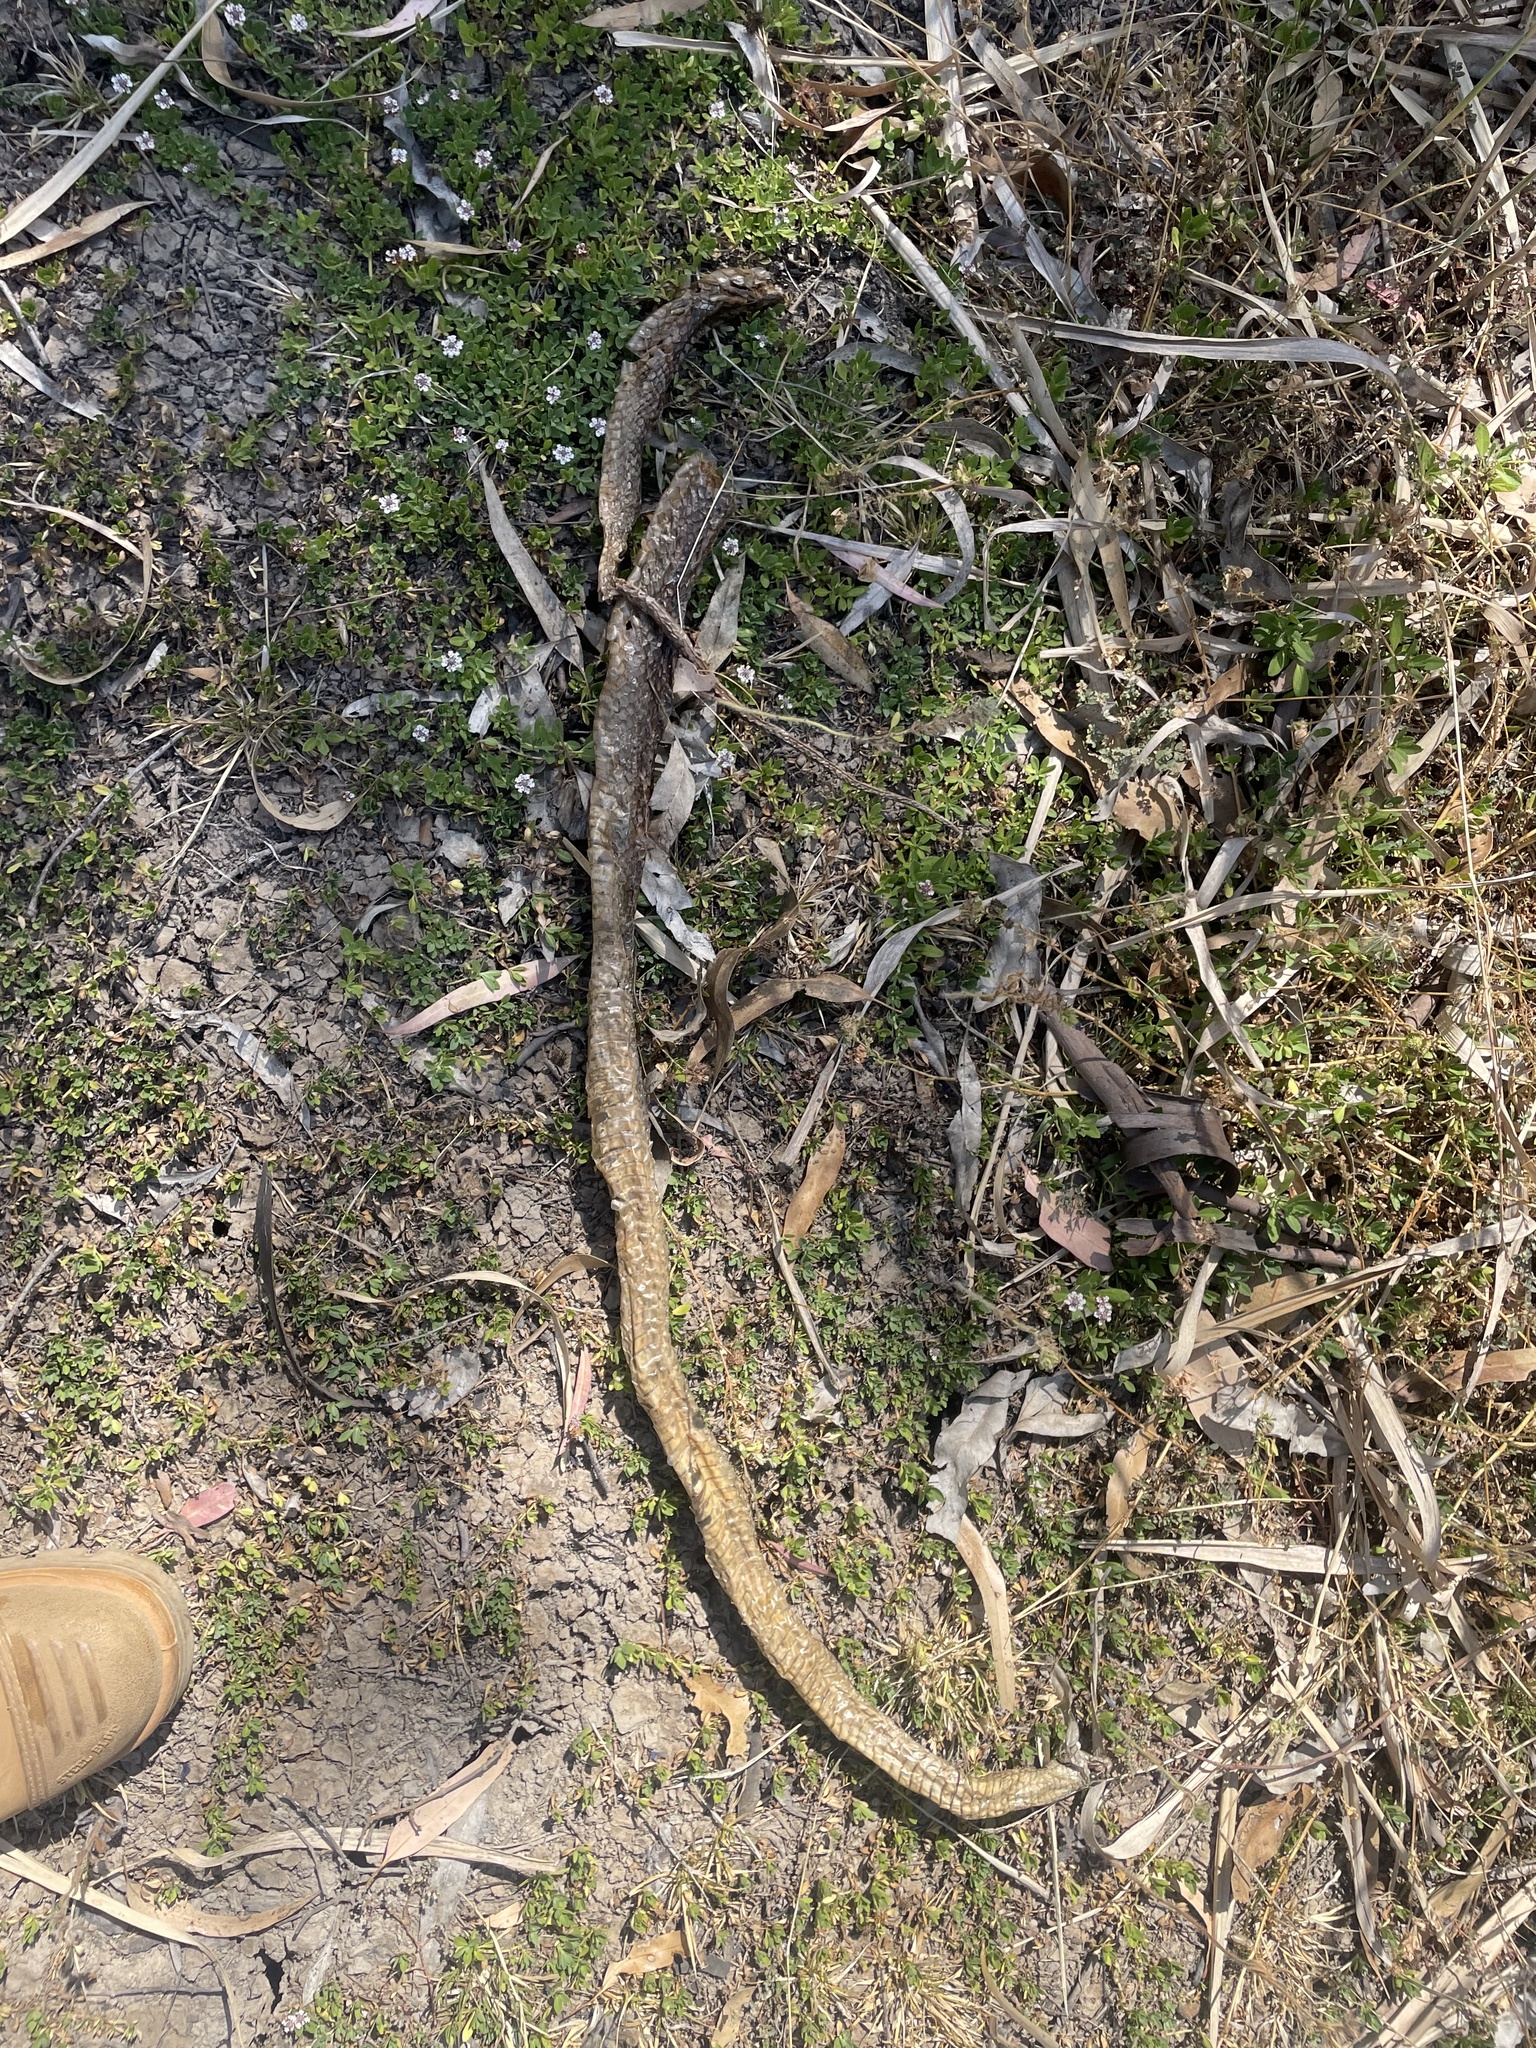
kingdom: Animalia
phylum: Chordata
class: Squamata
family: Elapidae
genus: Pseudonaja
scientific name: Pseudonaja textilis
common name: Eastern brown snake
